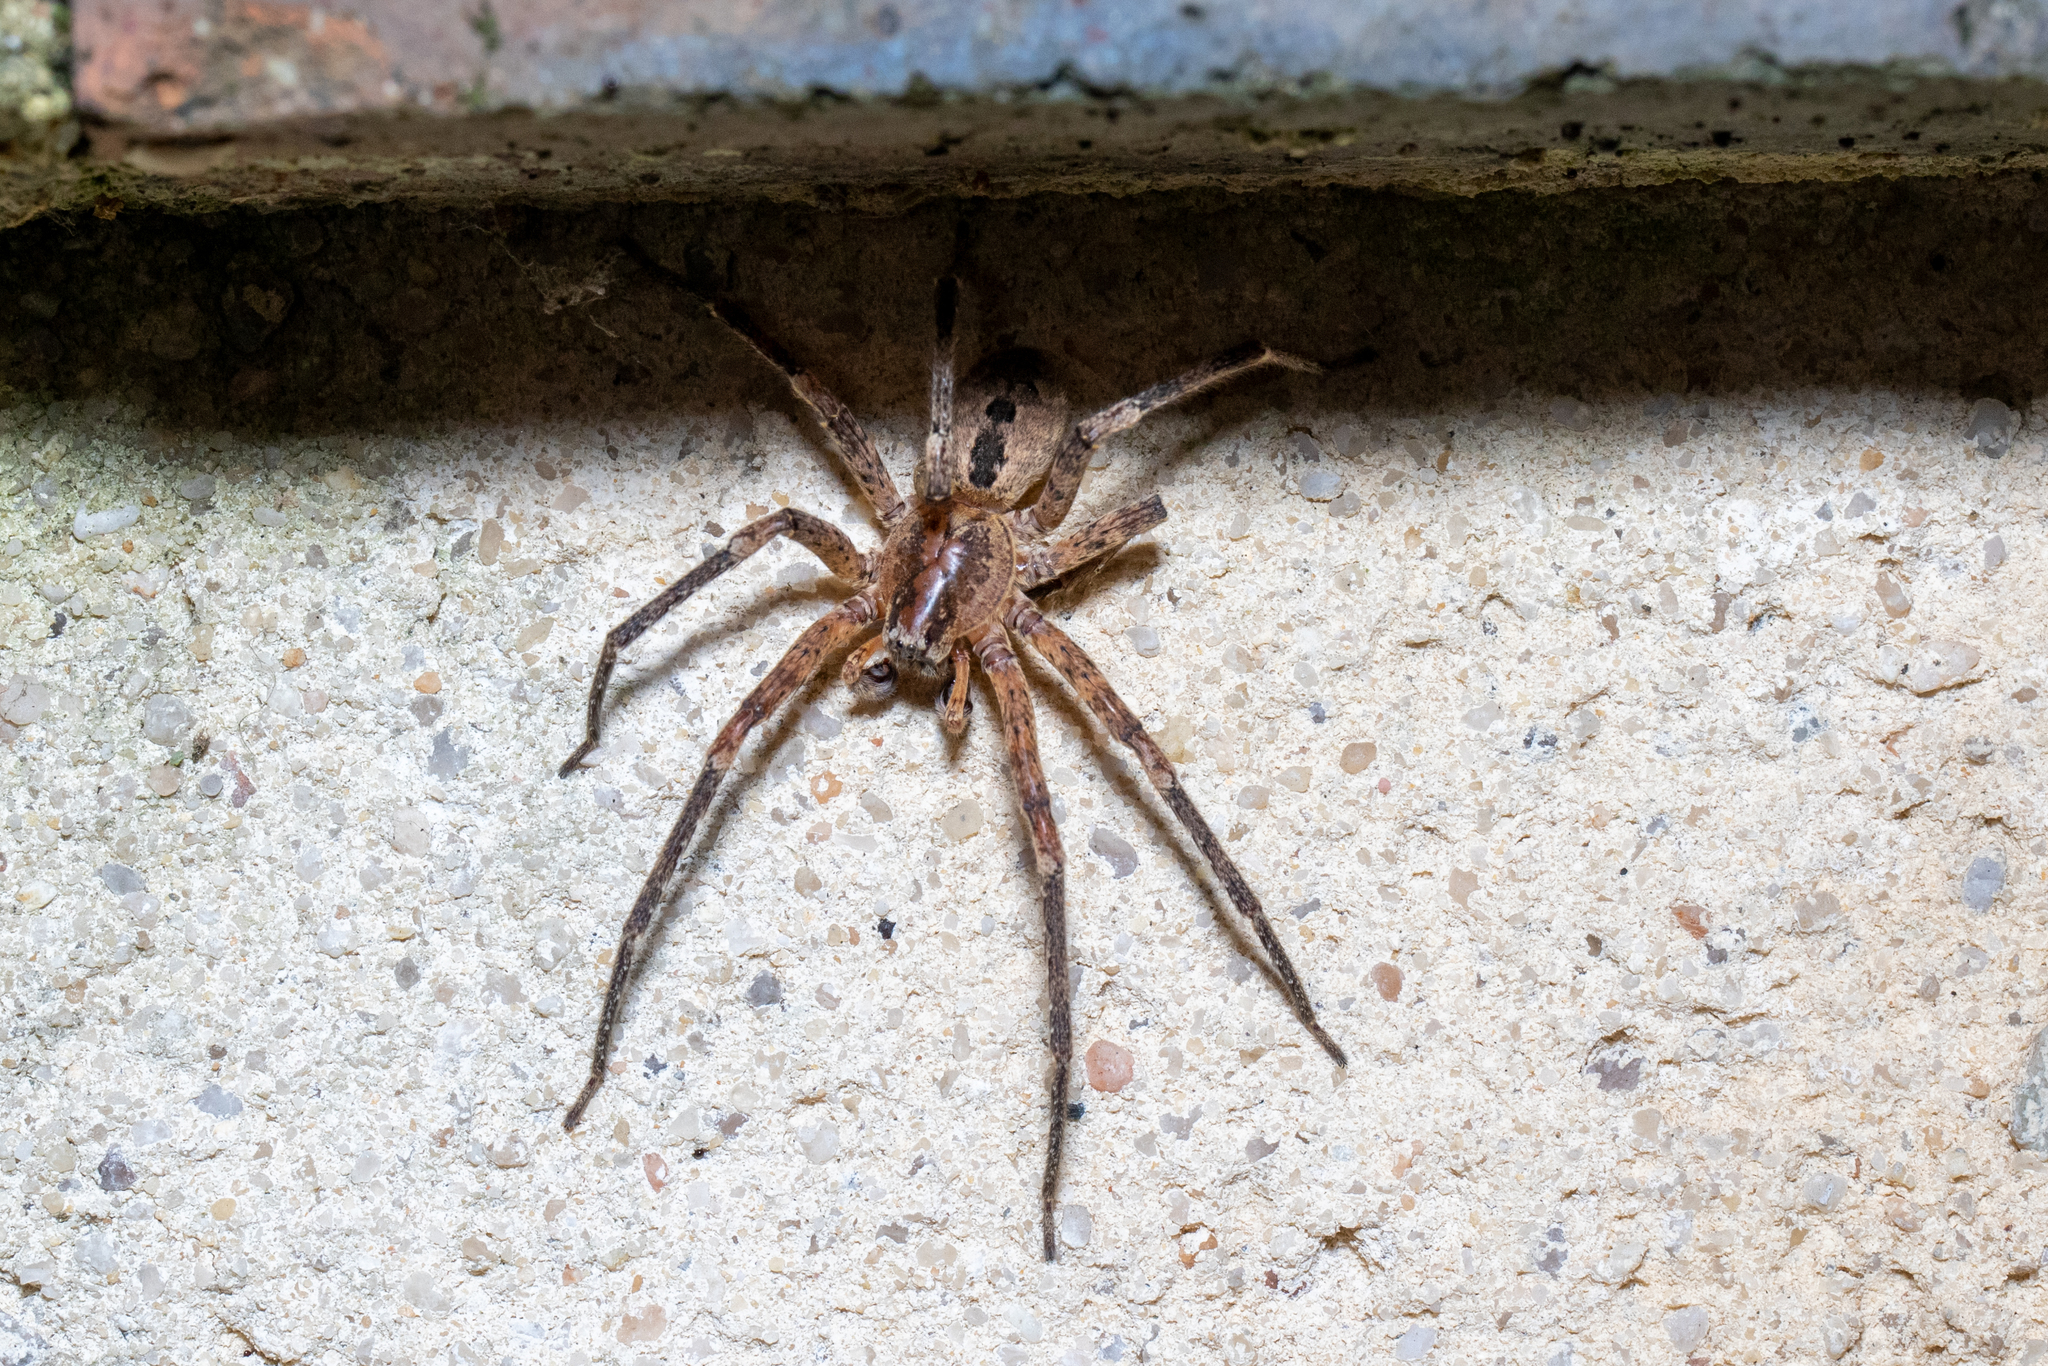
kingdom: Animalia
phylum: Arthropoda
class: Arachnida
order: Araneae
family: Zoropsidae
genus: Zoropsis
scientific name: Zoropsis spinimana
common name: Zoropsid spider
